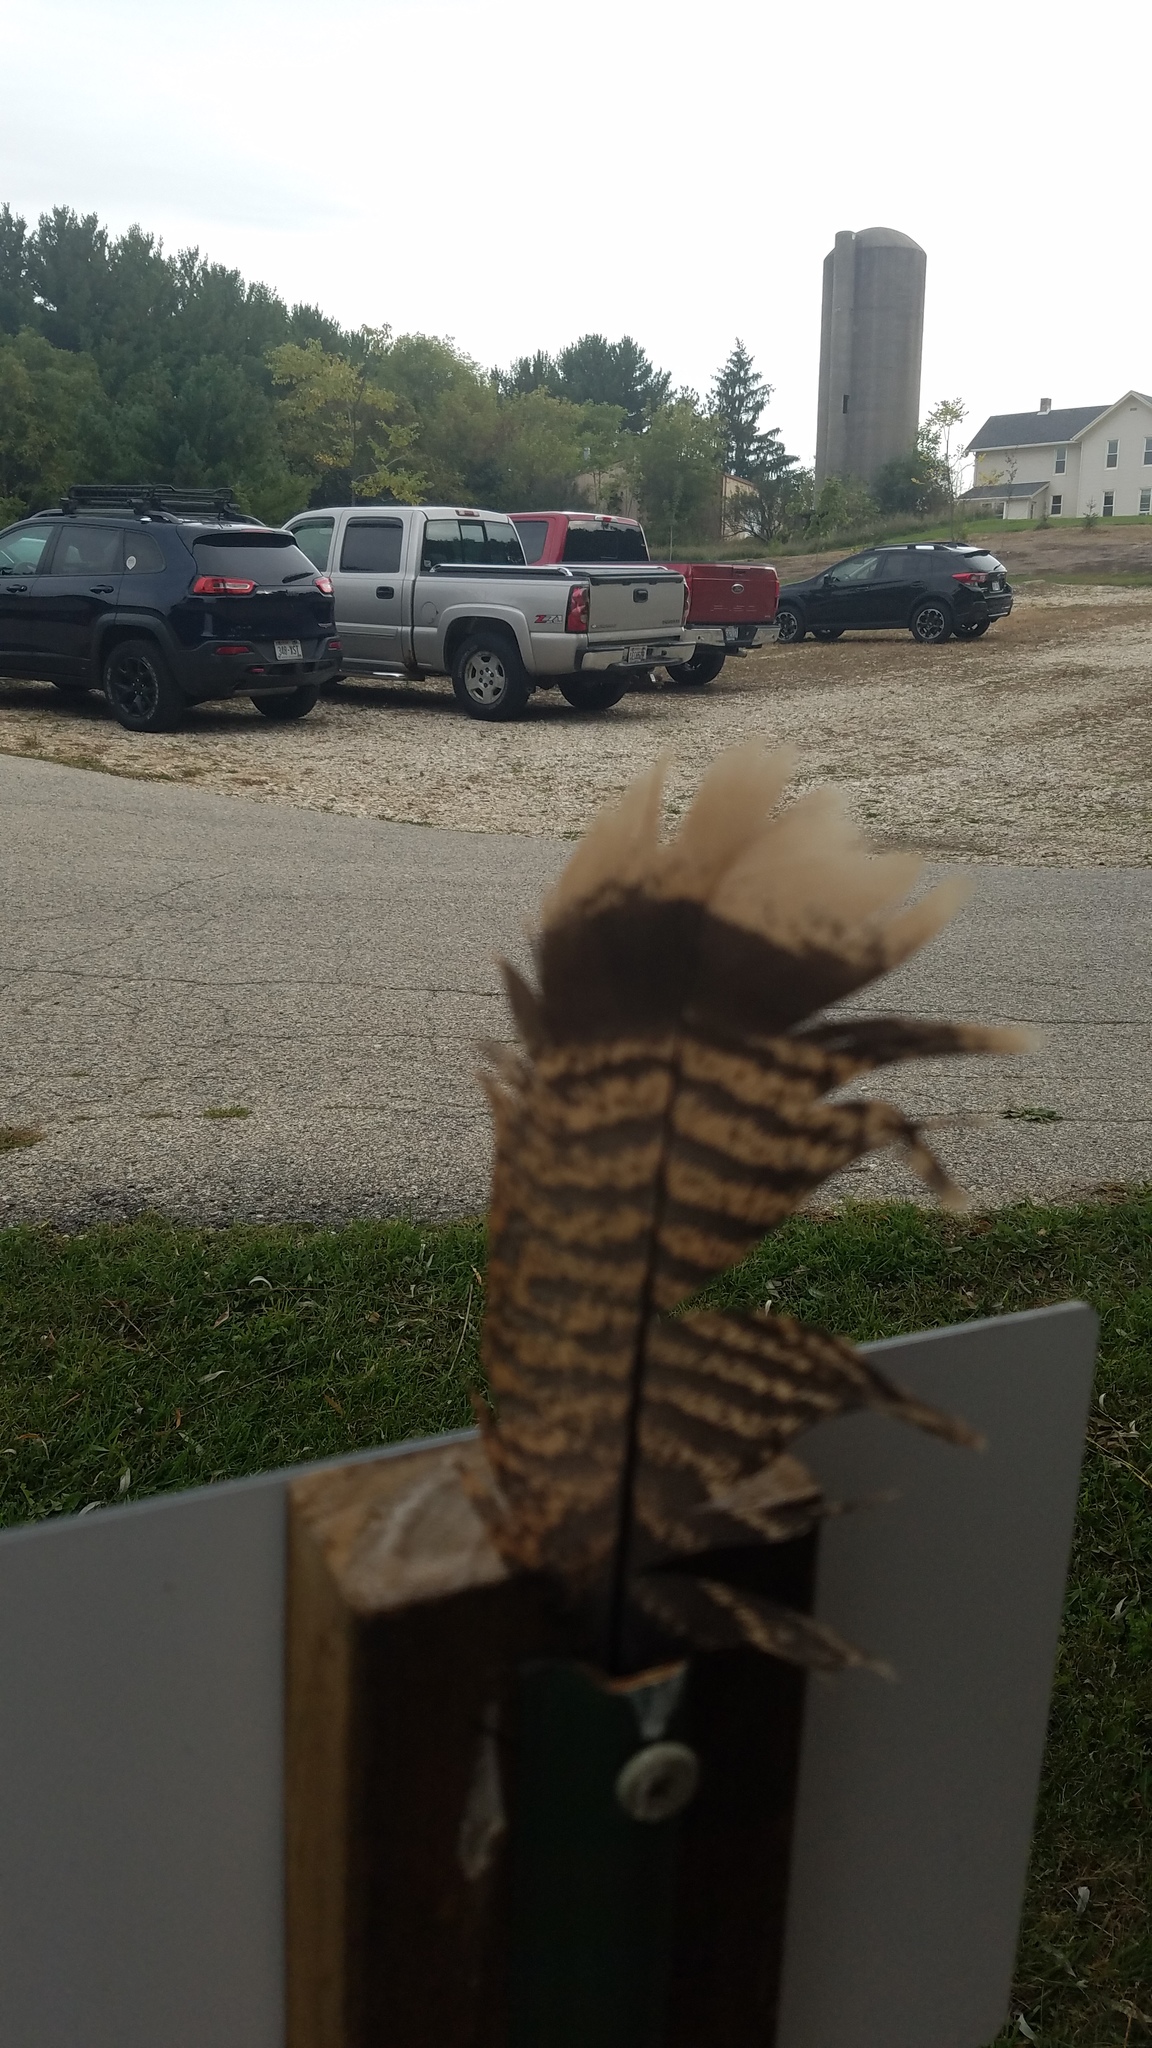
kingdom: Animalia
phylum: Chordata
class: Aves
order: Galliformes
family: Phasianidae
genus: Meleagris
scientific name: Meleagris gallopavo
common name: Wild turkey
